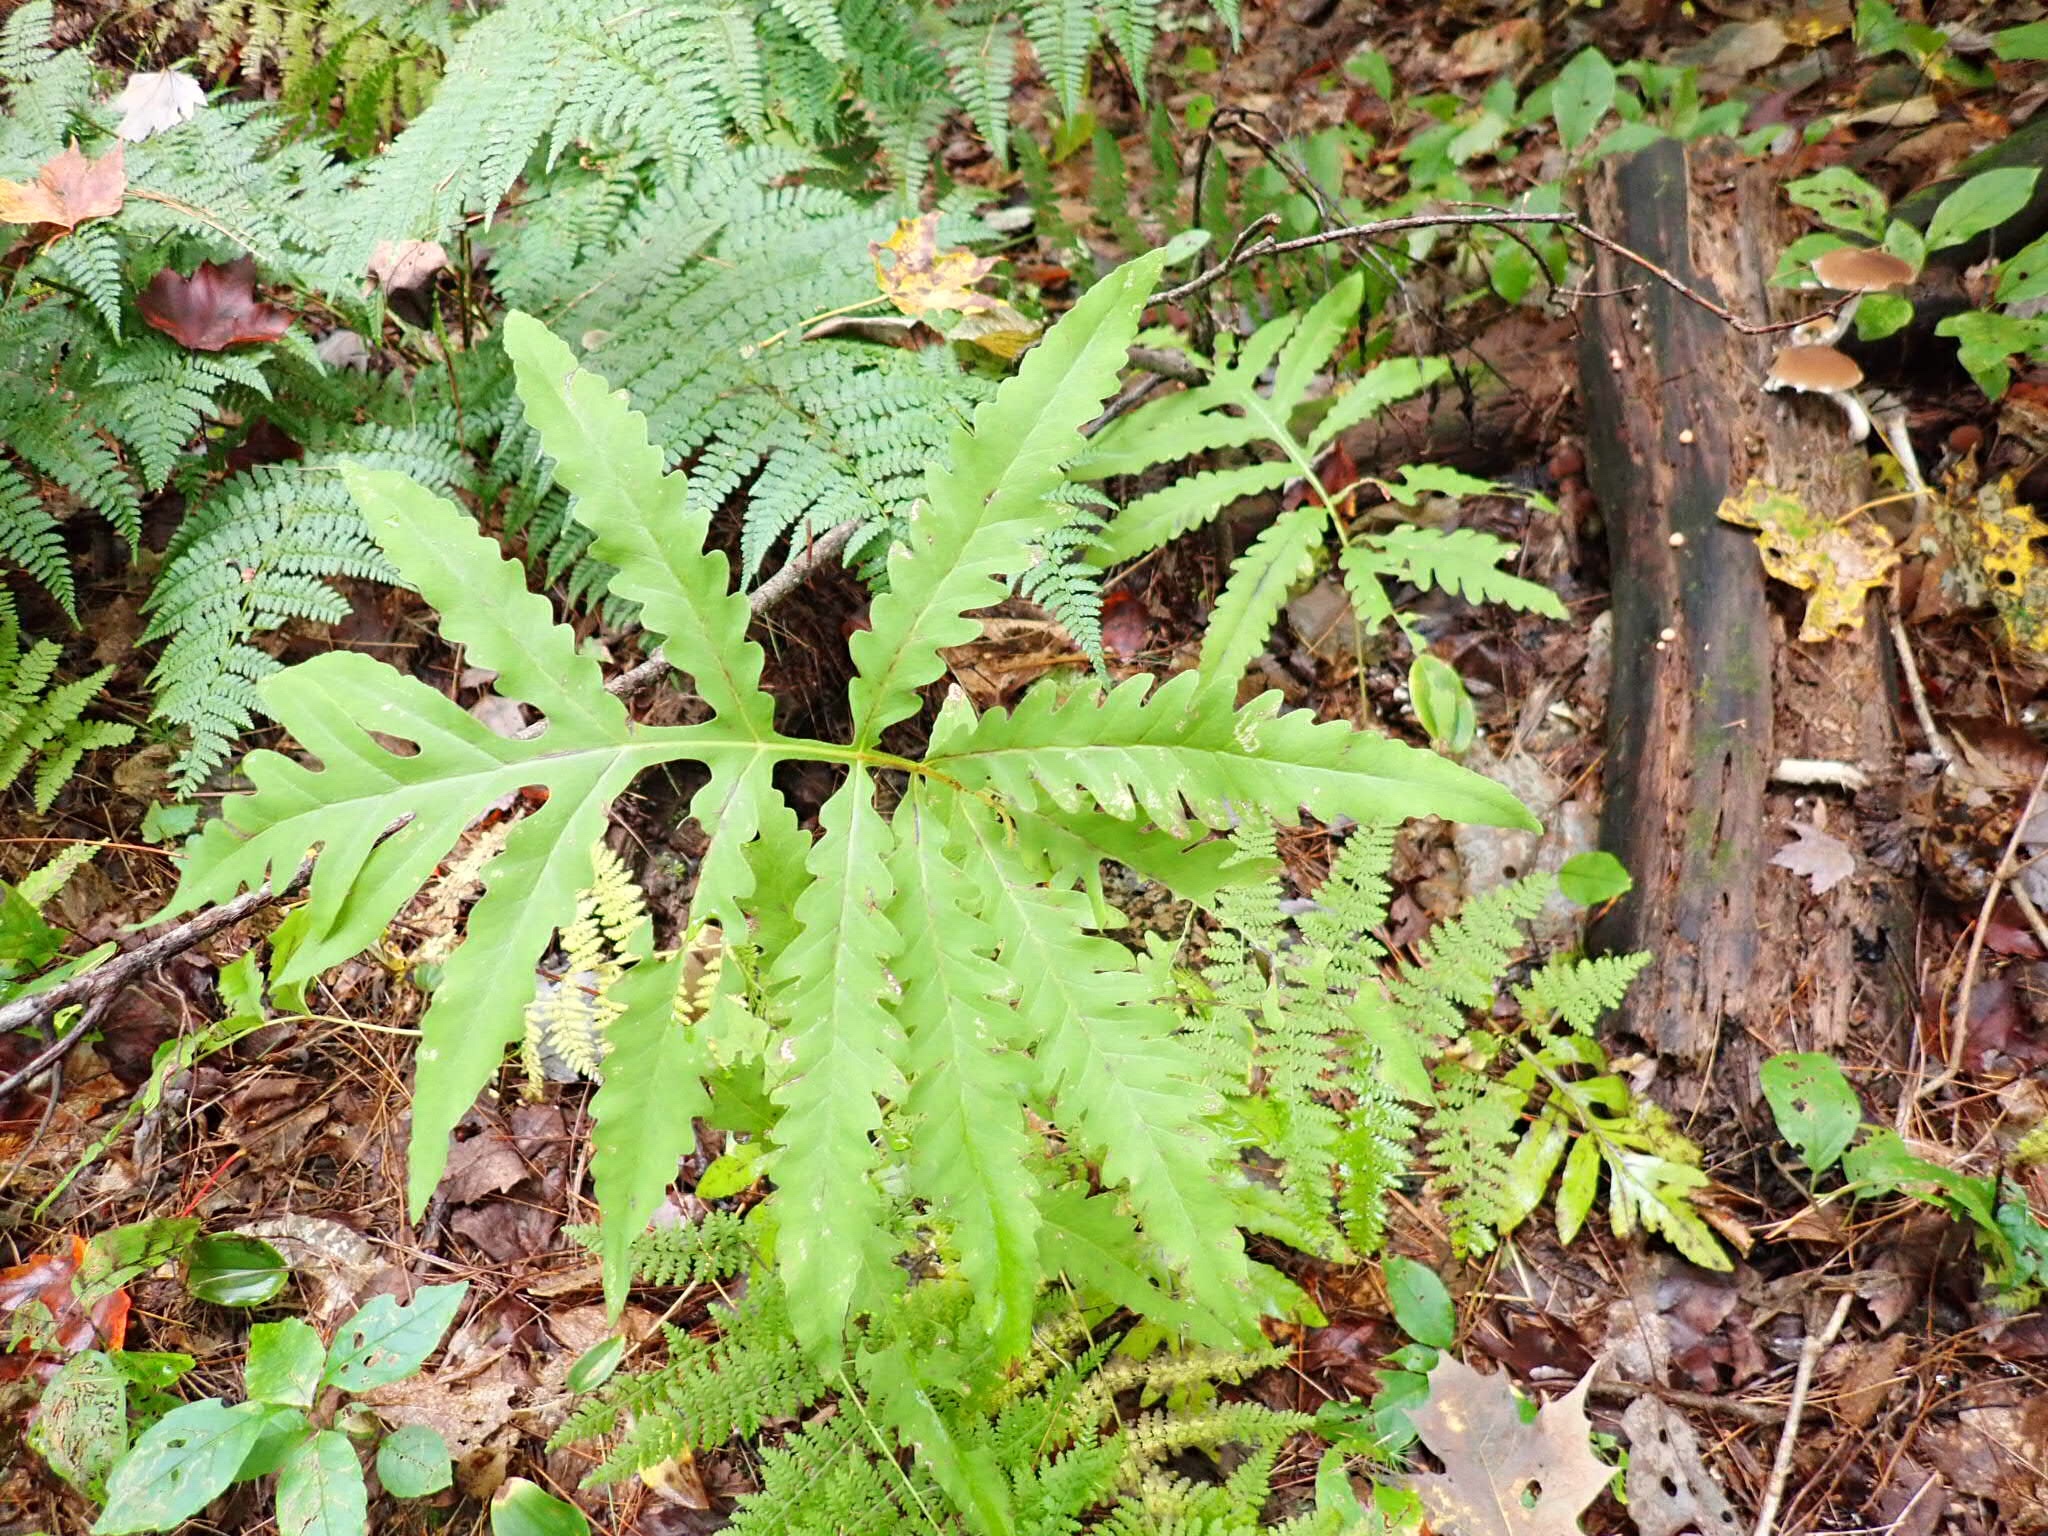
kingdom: Plantae
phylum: Tracheophyta
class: Polypodiopsida
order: Polypodiales
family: Onocleaceae
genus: Onoclea
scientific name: Onoclea sensibilis
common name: Sensitive fern
